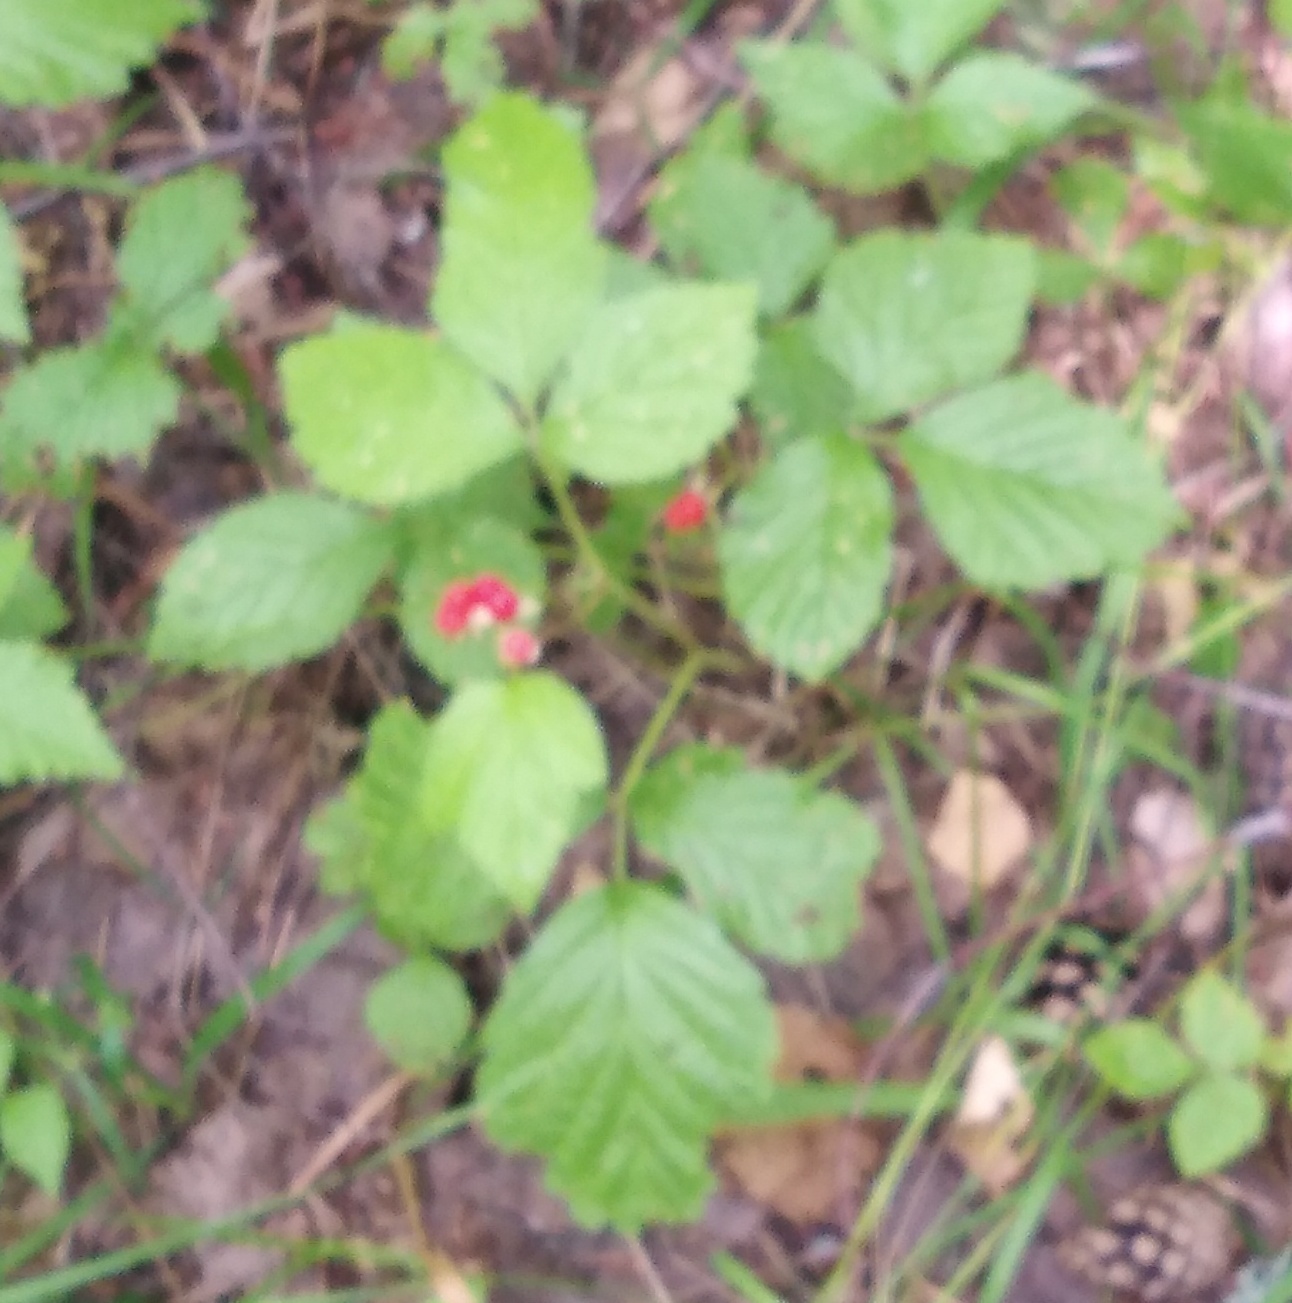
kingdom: Plantae
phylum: Tracheophyta
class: Magnoliopsida
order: Rosales
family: Rosaceae
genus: Rubus
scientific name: Rubus saxatilis
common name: Stone bramble
